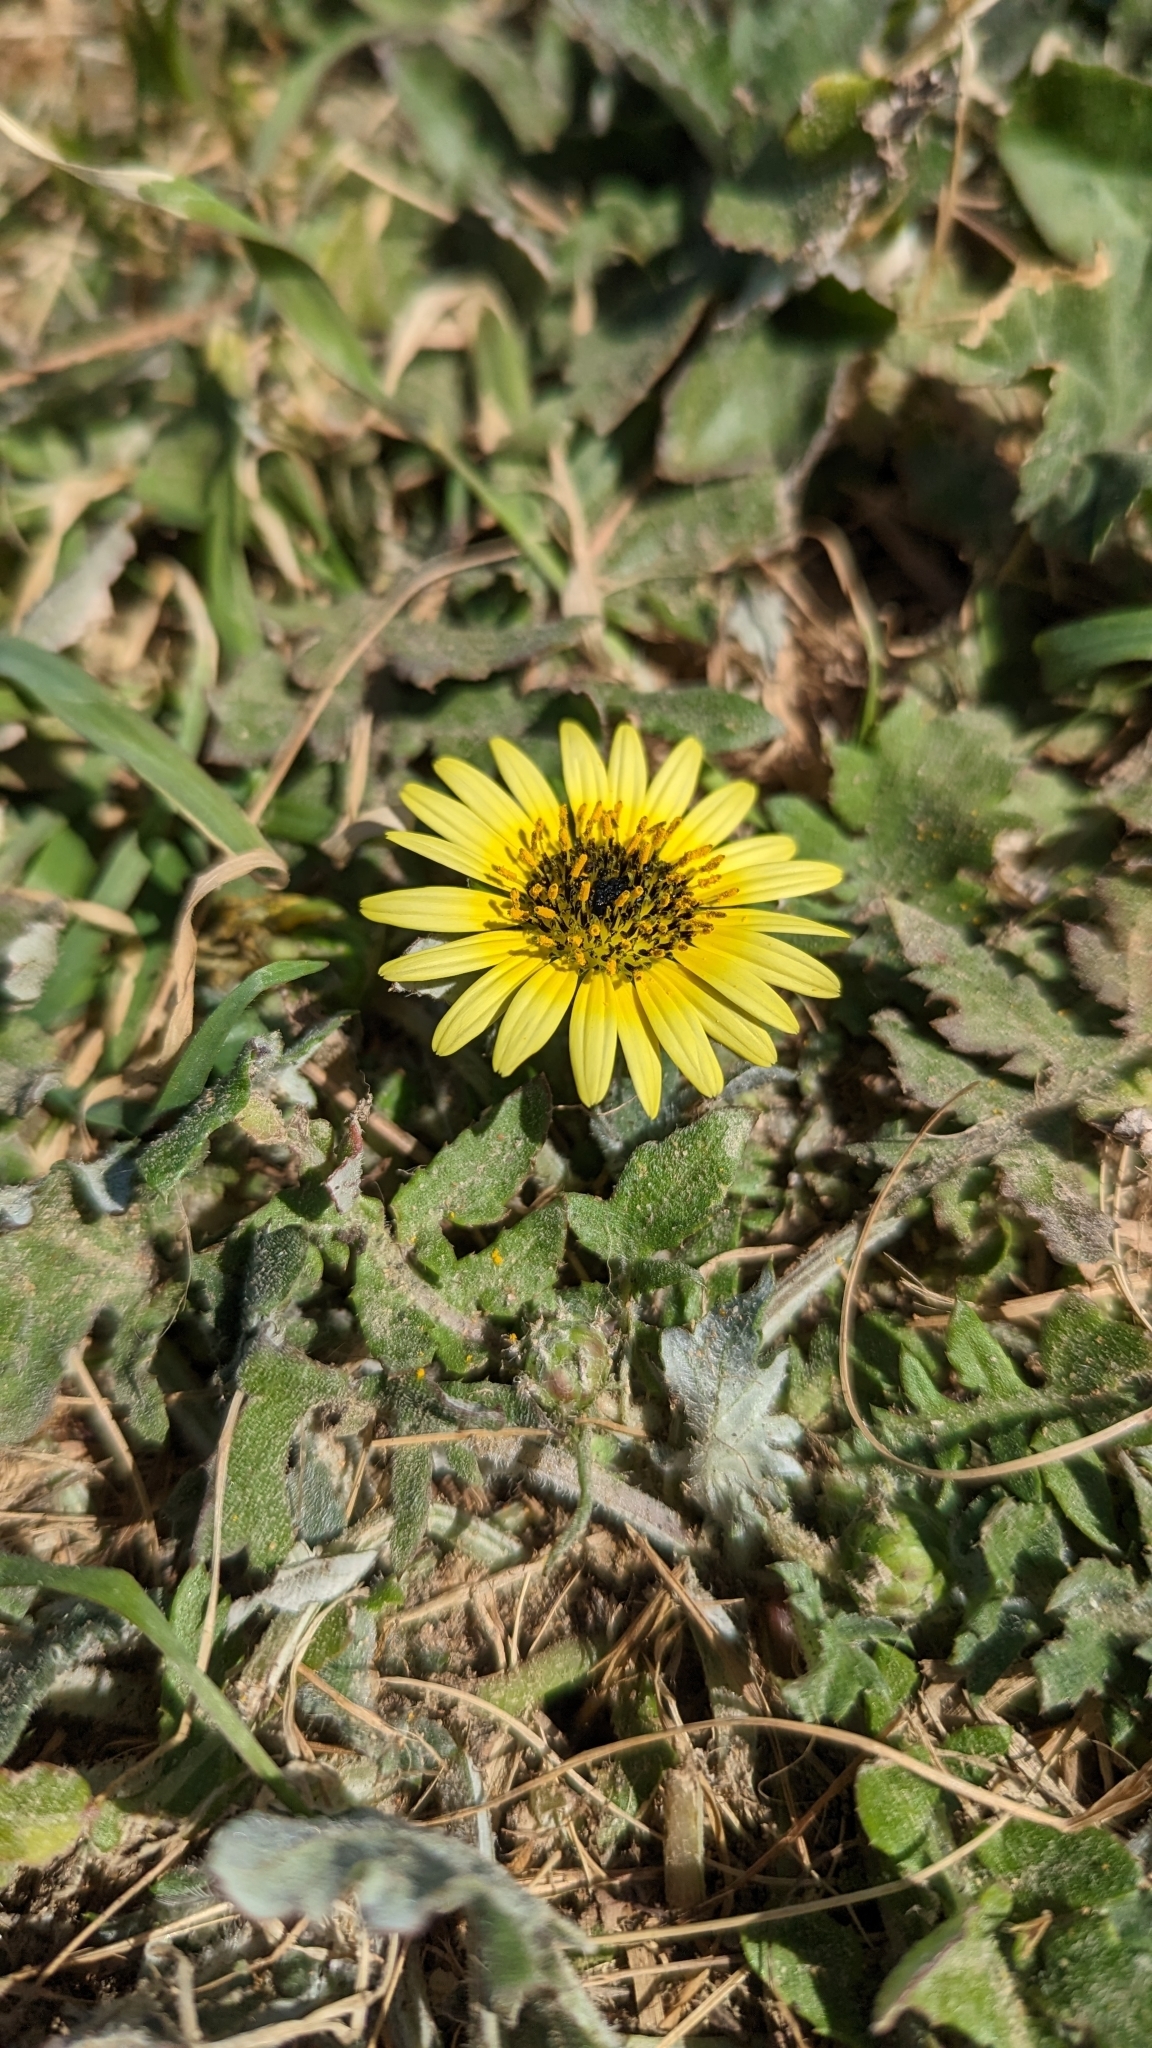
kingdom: Plantae
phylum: Tracheophyta
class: Magnoliopsida
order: Asterales
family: Asteraceae
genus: Arctotheca
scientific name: Arctotheca calendula
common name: Capeweed
